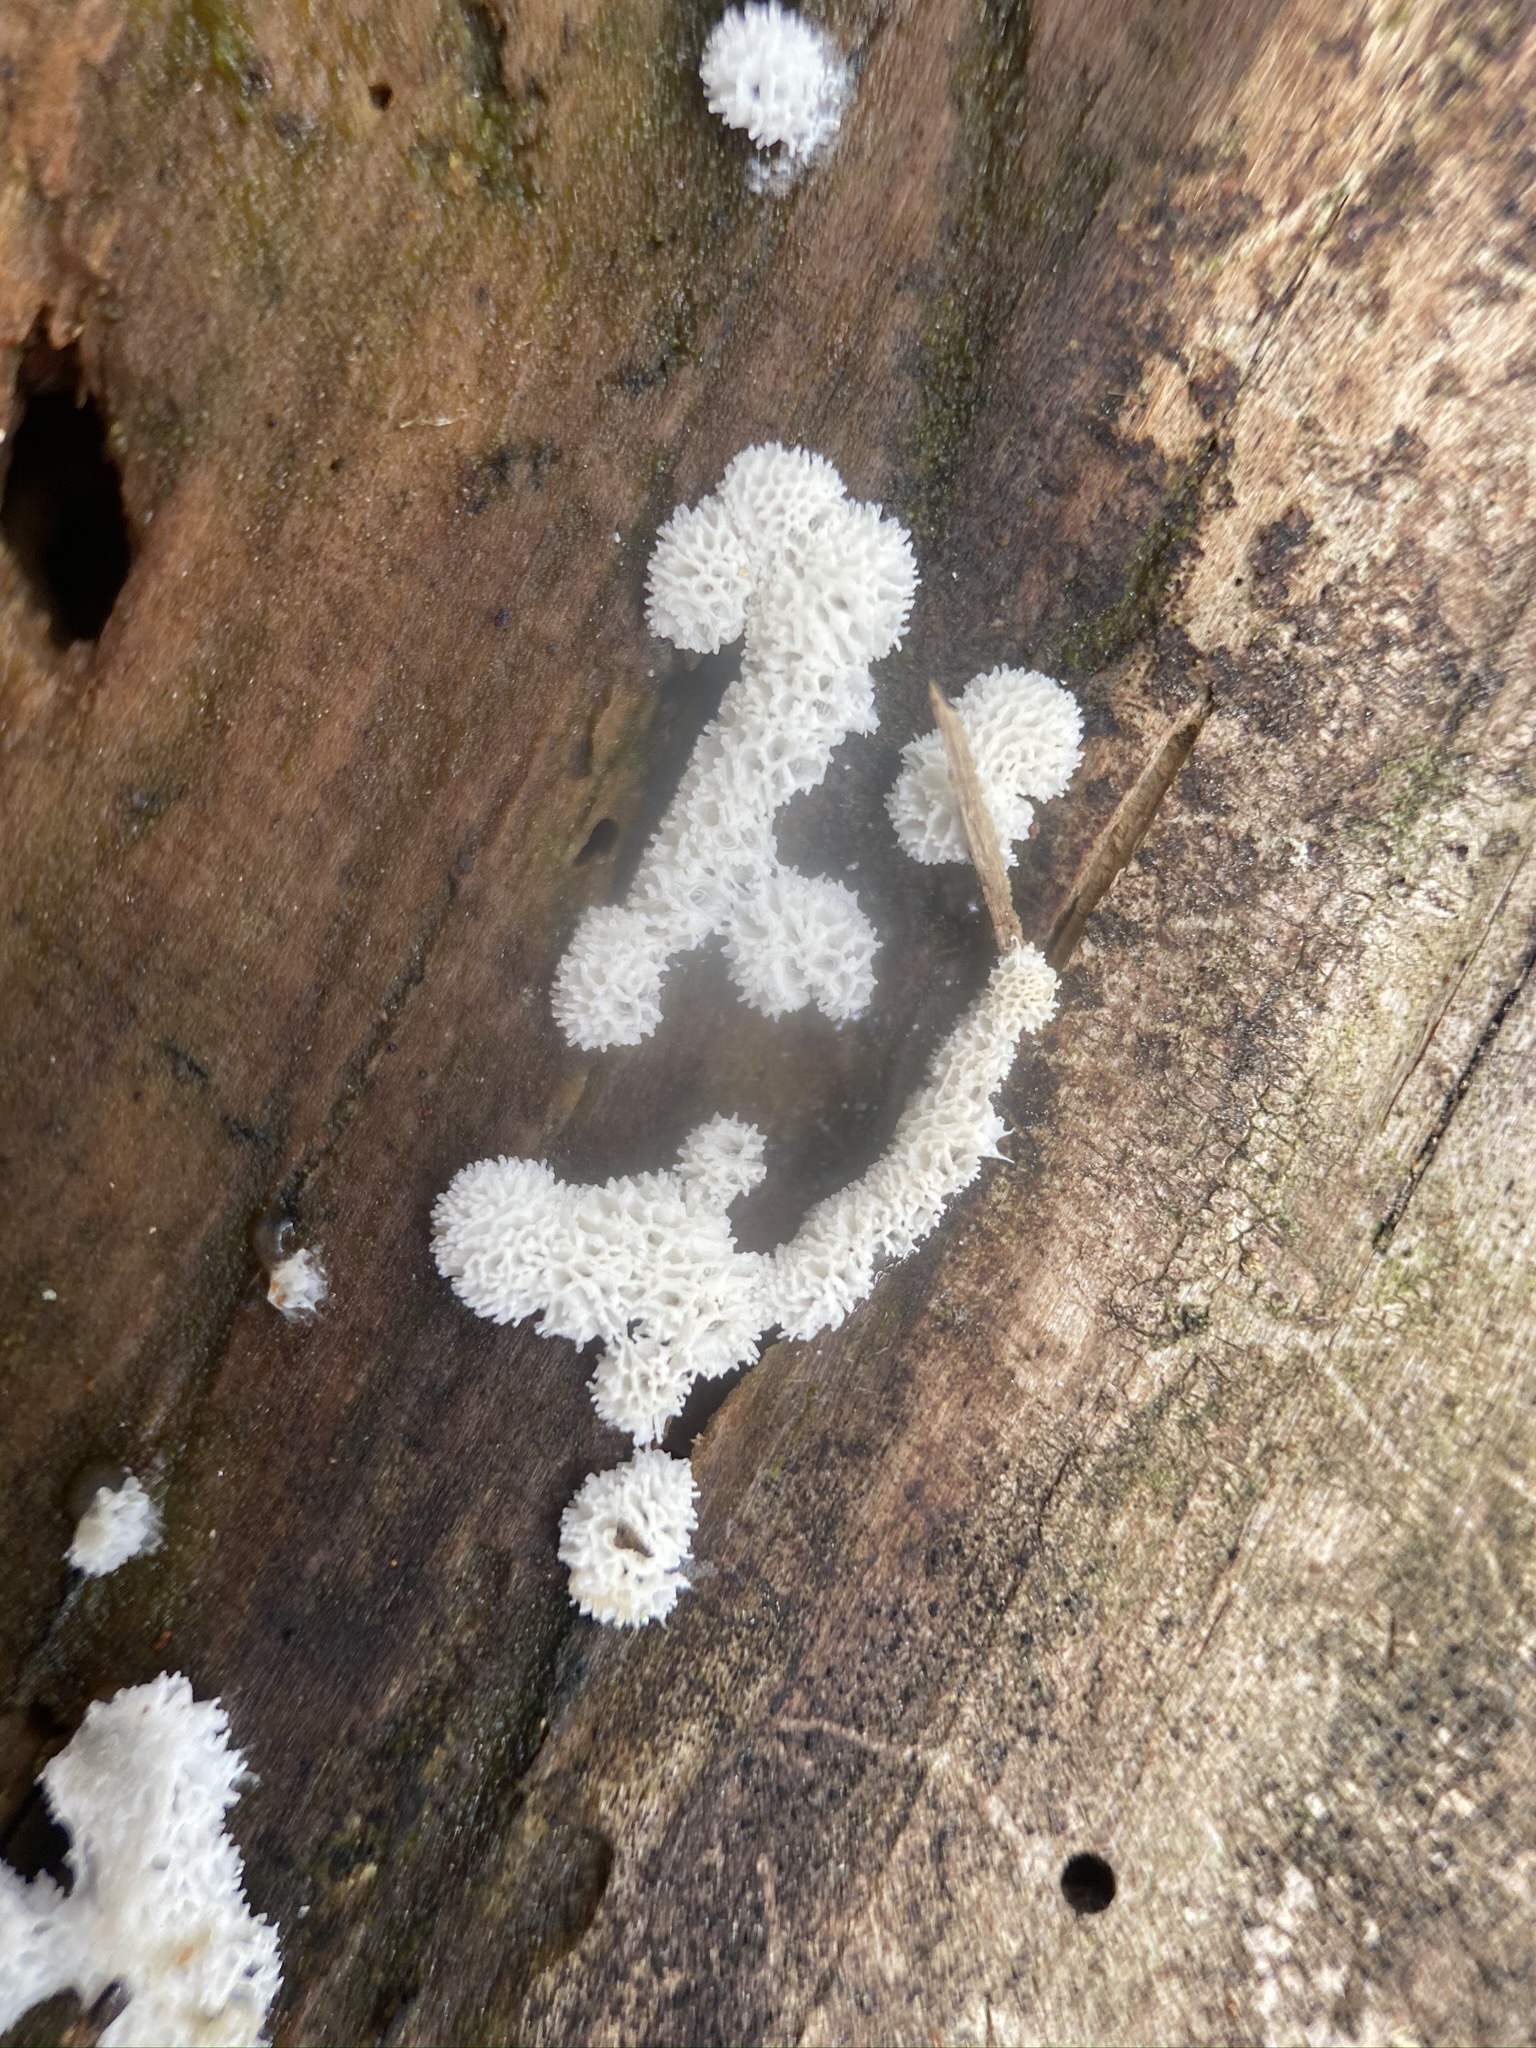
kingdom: Protozoa
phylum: Mycetozoa
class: Protosteliomycetes
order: Ceratiomyxales
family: Ceratiomyxaceae
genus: Ceratiomyxa
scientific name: Ceratiomyxa fruticulosa
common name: Honeycomb coral slime mold
